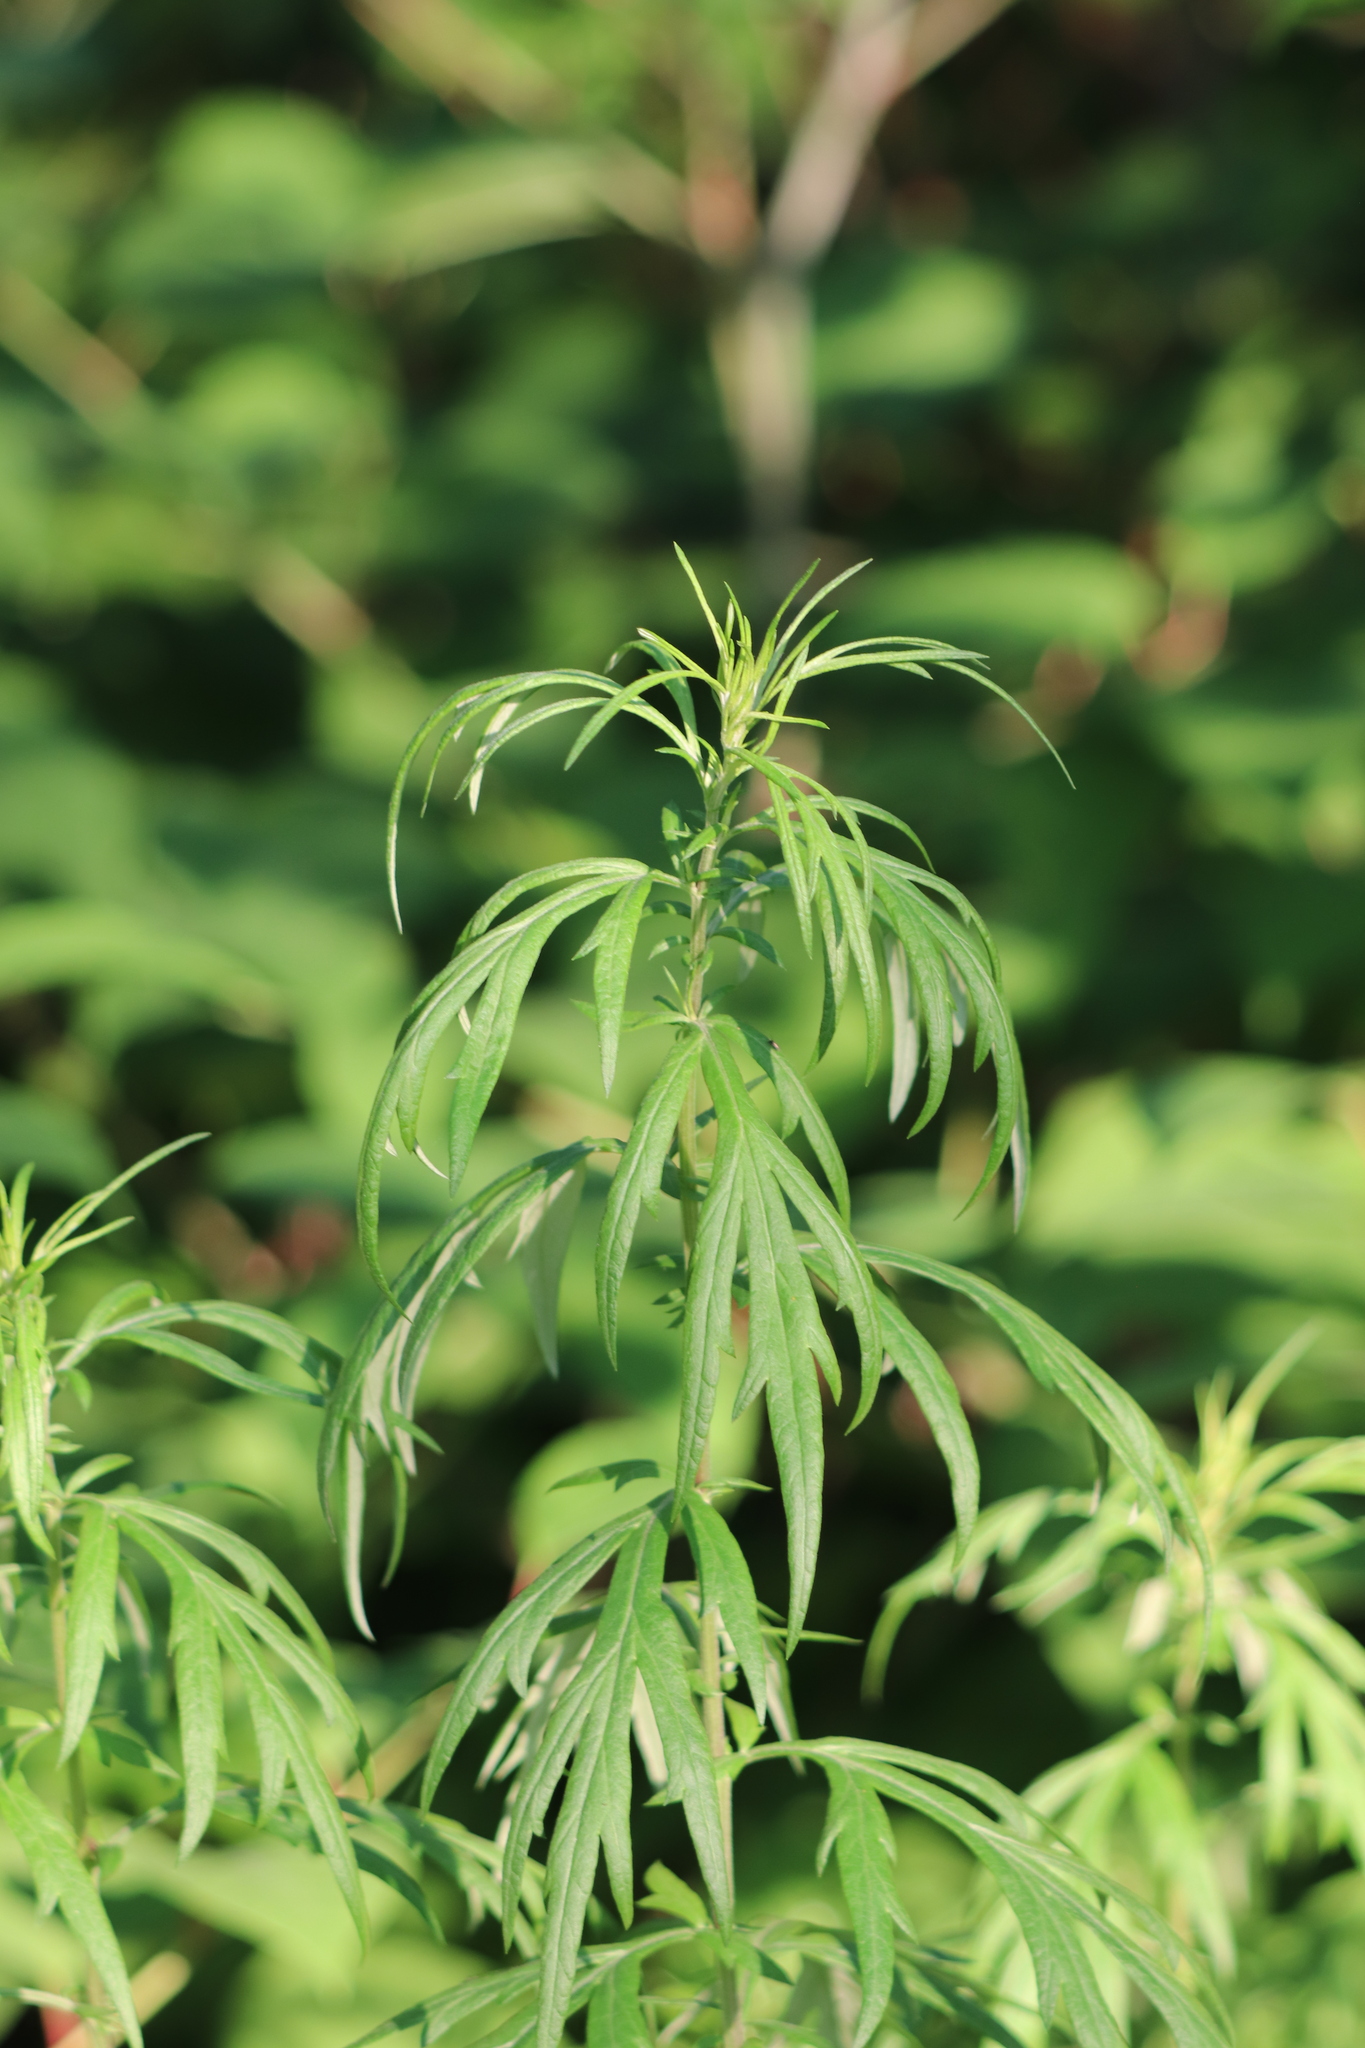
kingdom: Plantae
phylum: Tracheophyta
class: Magnoliopsida
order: Asterales
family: Asteraceae
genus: Artemisia
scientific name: Artemisia vulgaris
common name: Mugwort
